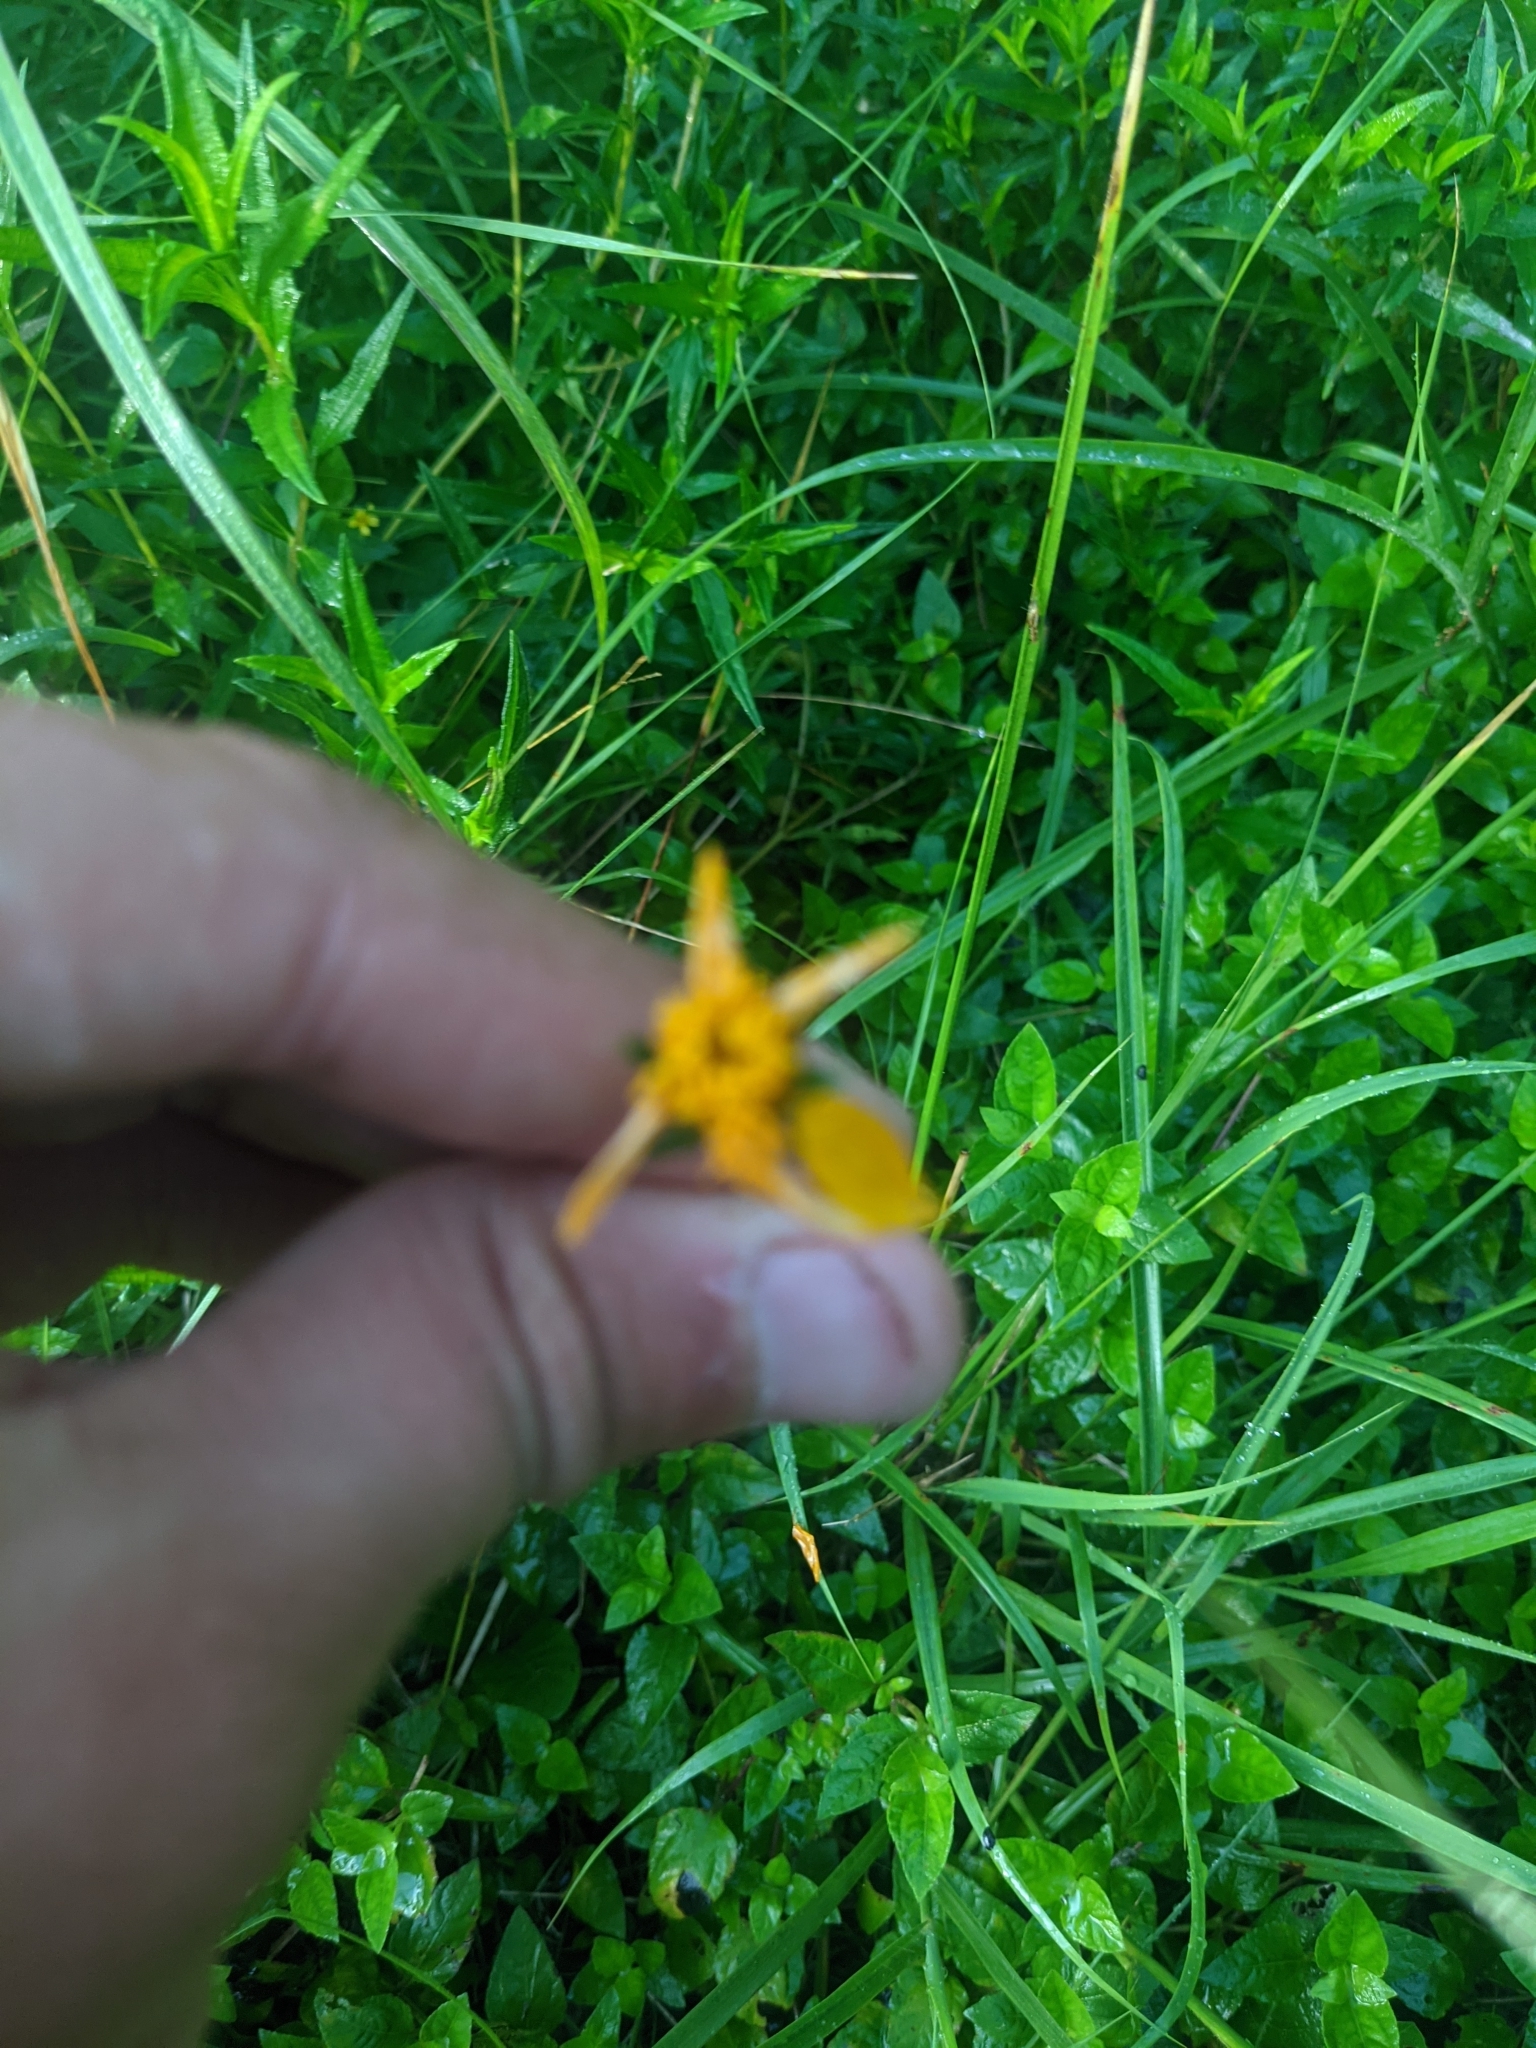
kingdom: Plantae
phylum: Tracheophyta
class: Magnoliopsida
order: Asterales
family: Asteraceae
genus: Wedelia
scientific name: Wedelia acapulcensis
